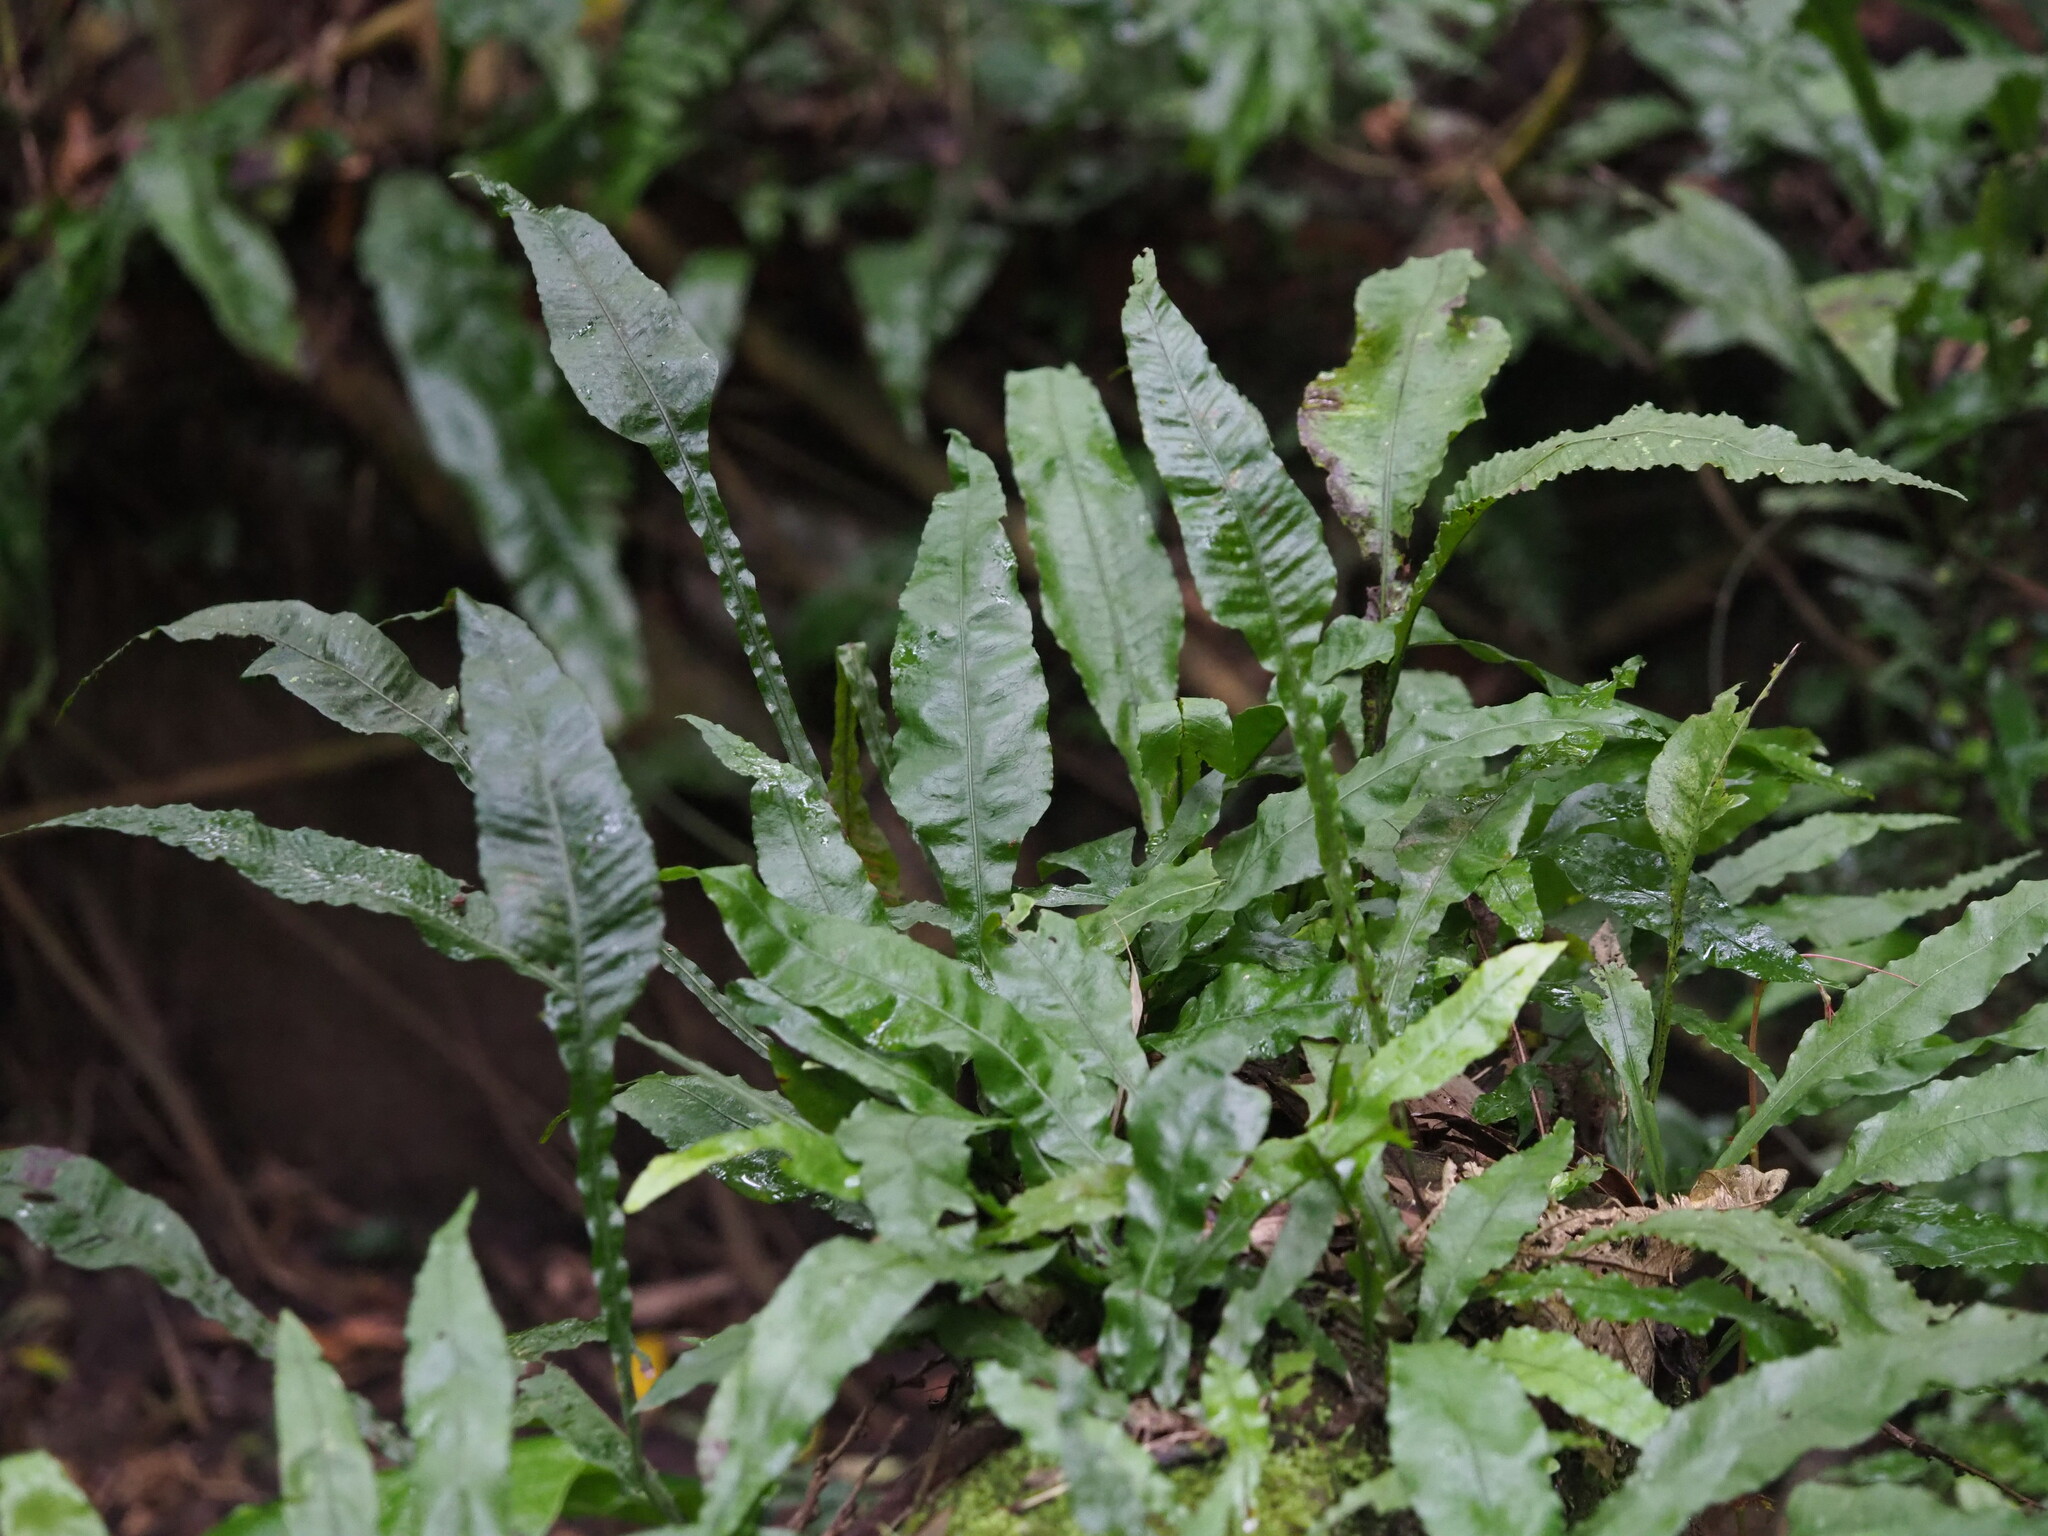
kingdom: Plantae
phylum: Tracheophyta
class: Polypodiopsida
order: Polypodiales
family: Polypodiaceae
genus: Leptochilus
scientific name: Leptochilus wrightii
